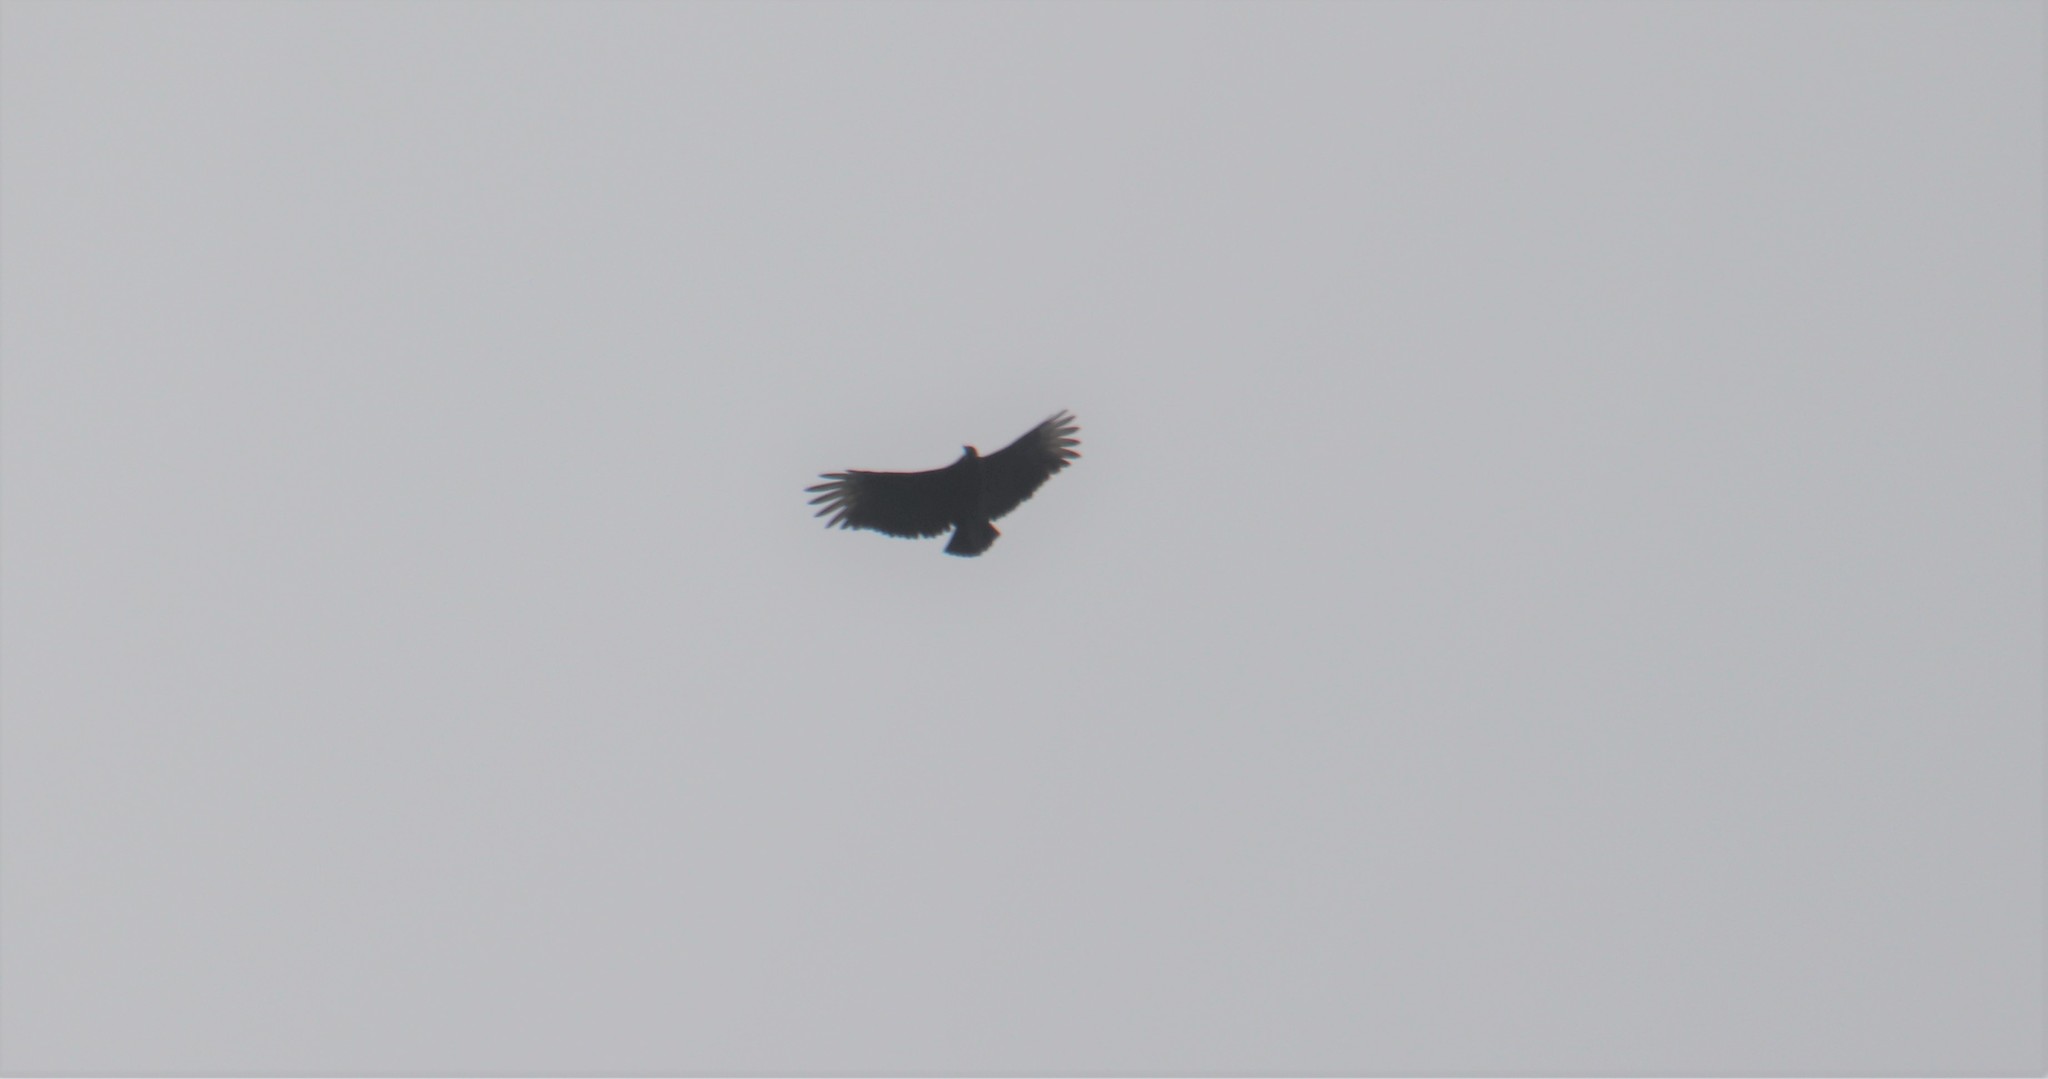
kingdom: Animalia
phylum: Chordata
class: Aves
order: Accipitriformes
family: Cathartidae
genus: Coragyps
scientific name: Coragyps atratus
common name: Black vulture
